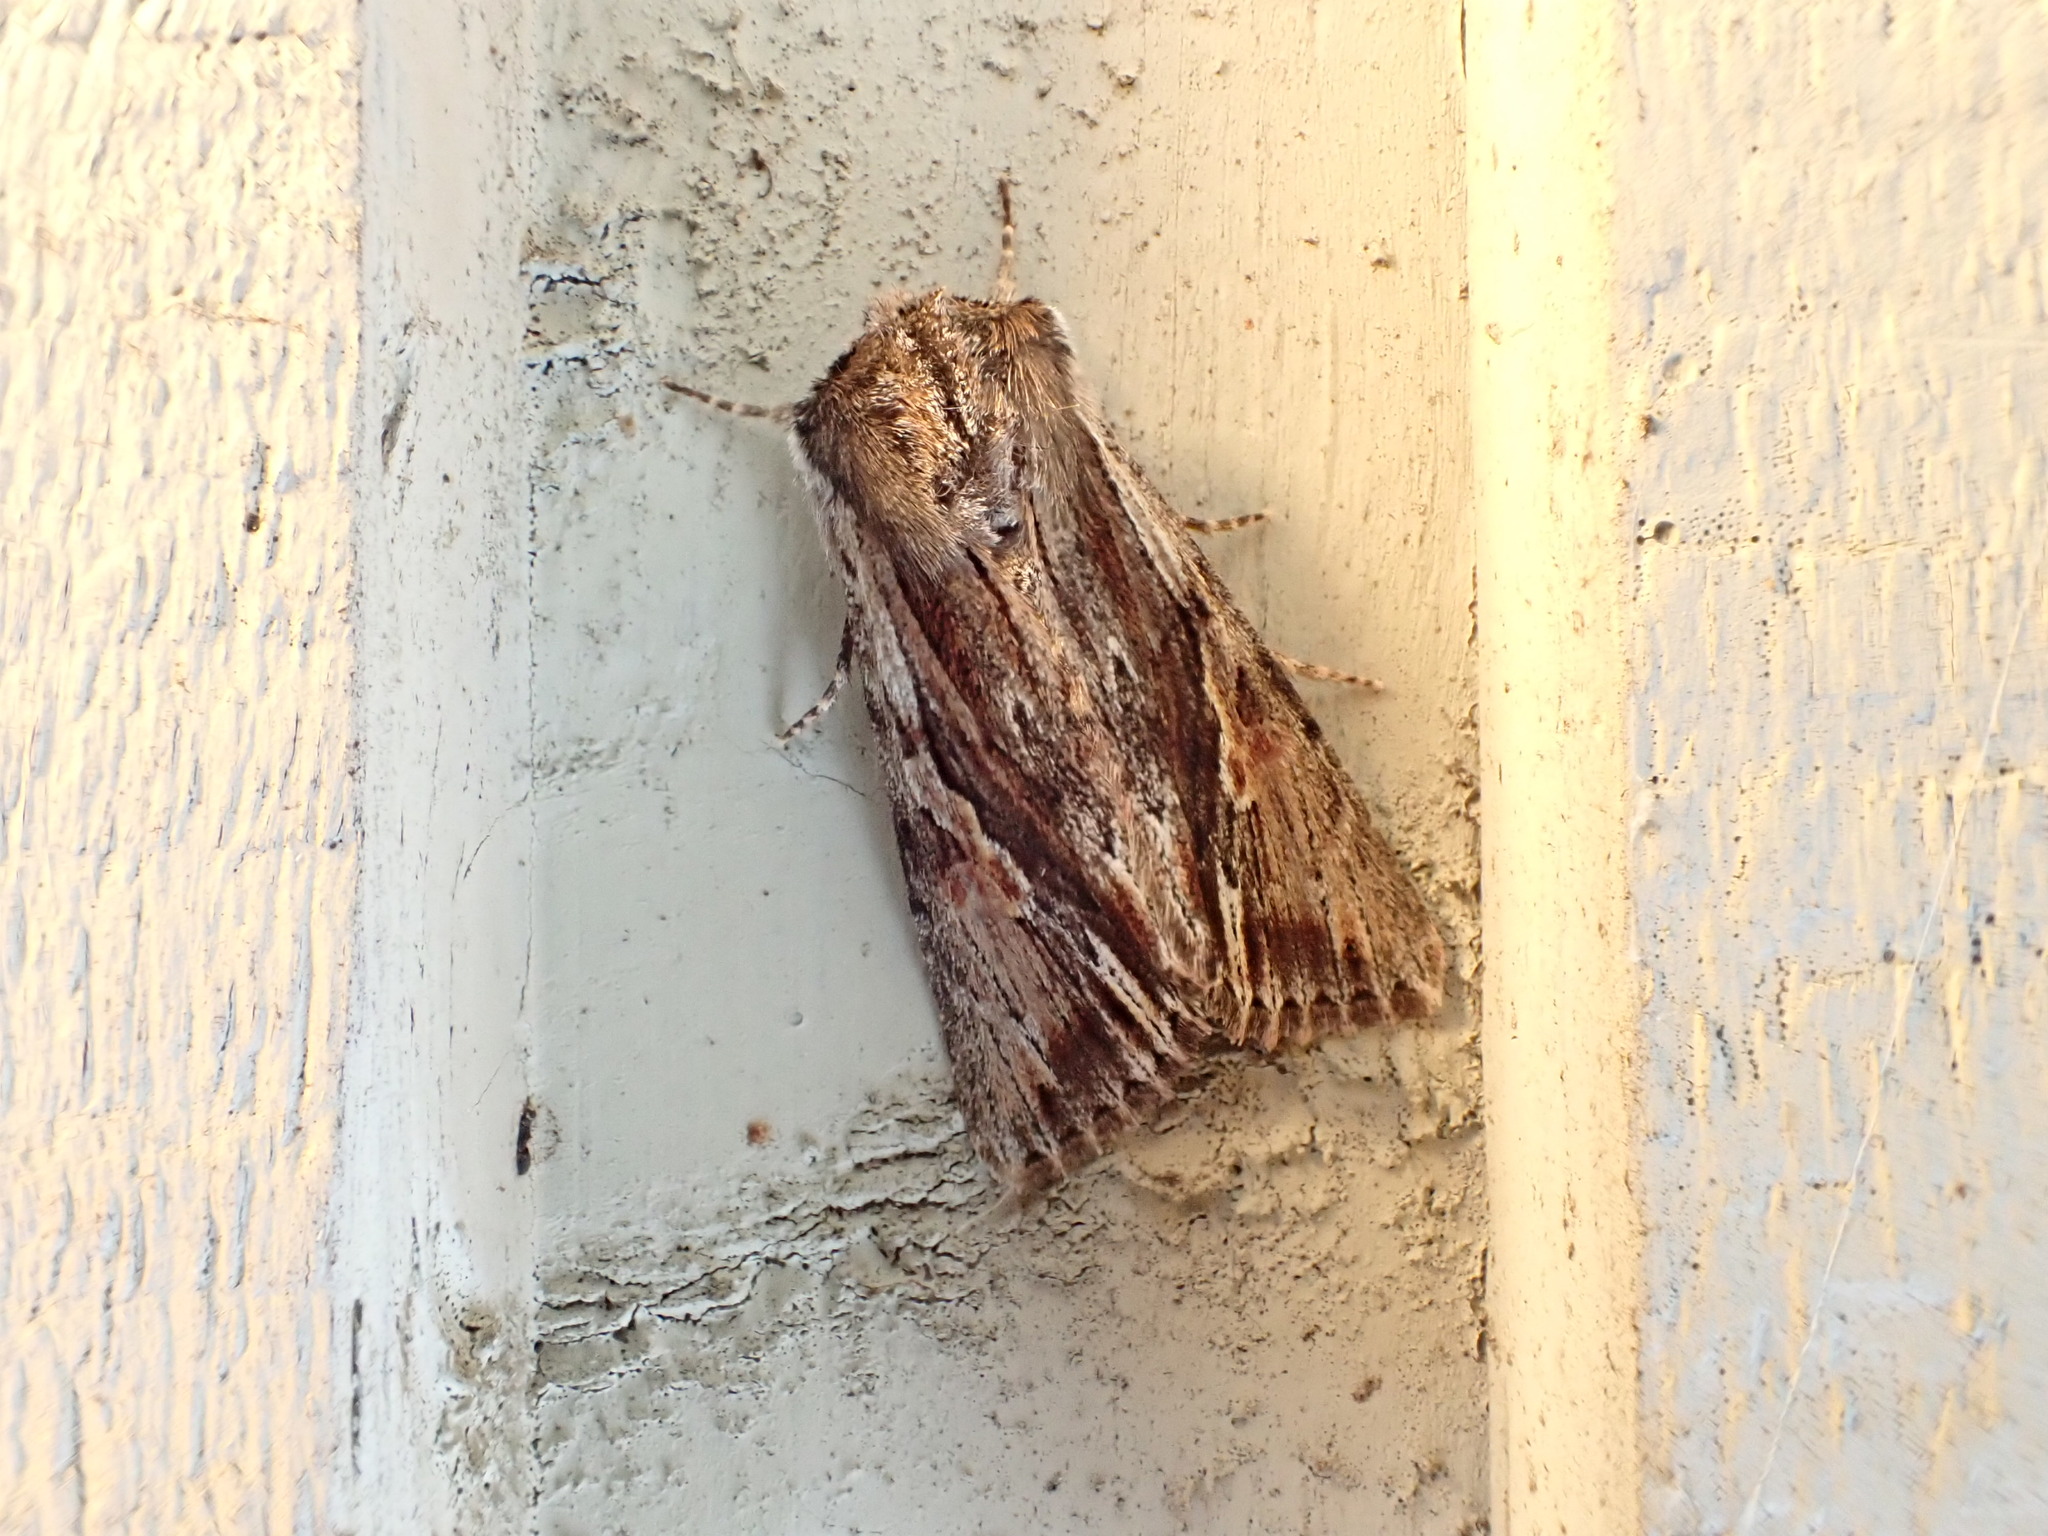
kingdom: Animalia
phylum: Arthropoda
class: Insecta
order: Lepidoptera
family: Noctuidae
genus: Achatia
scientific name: Achatia evicta
